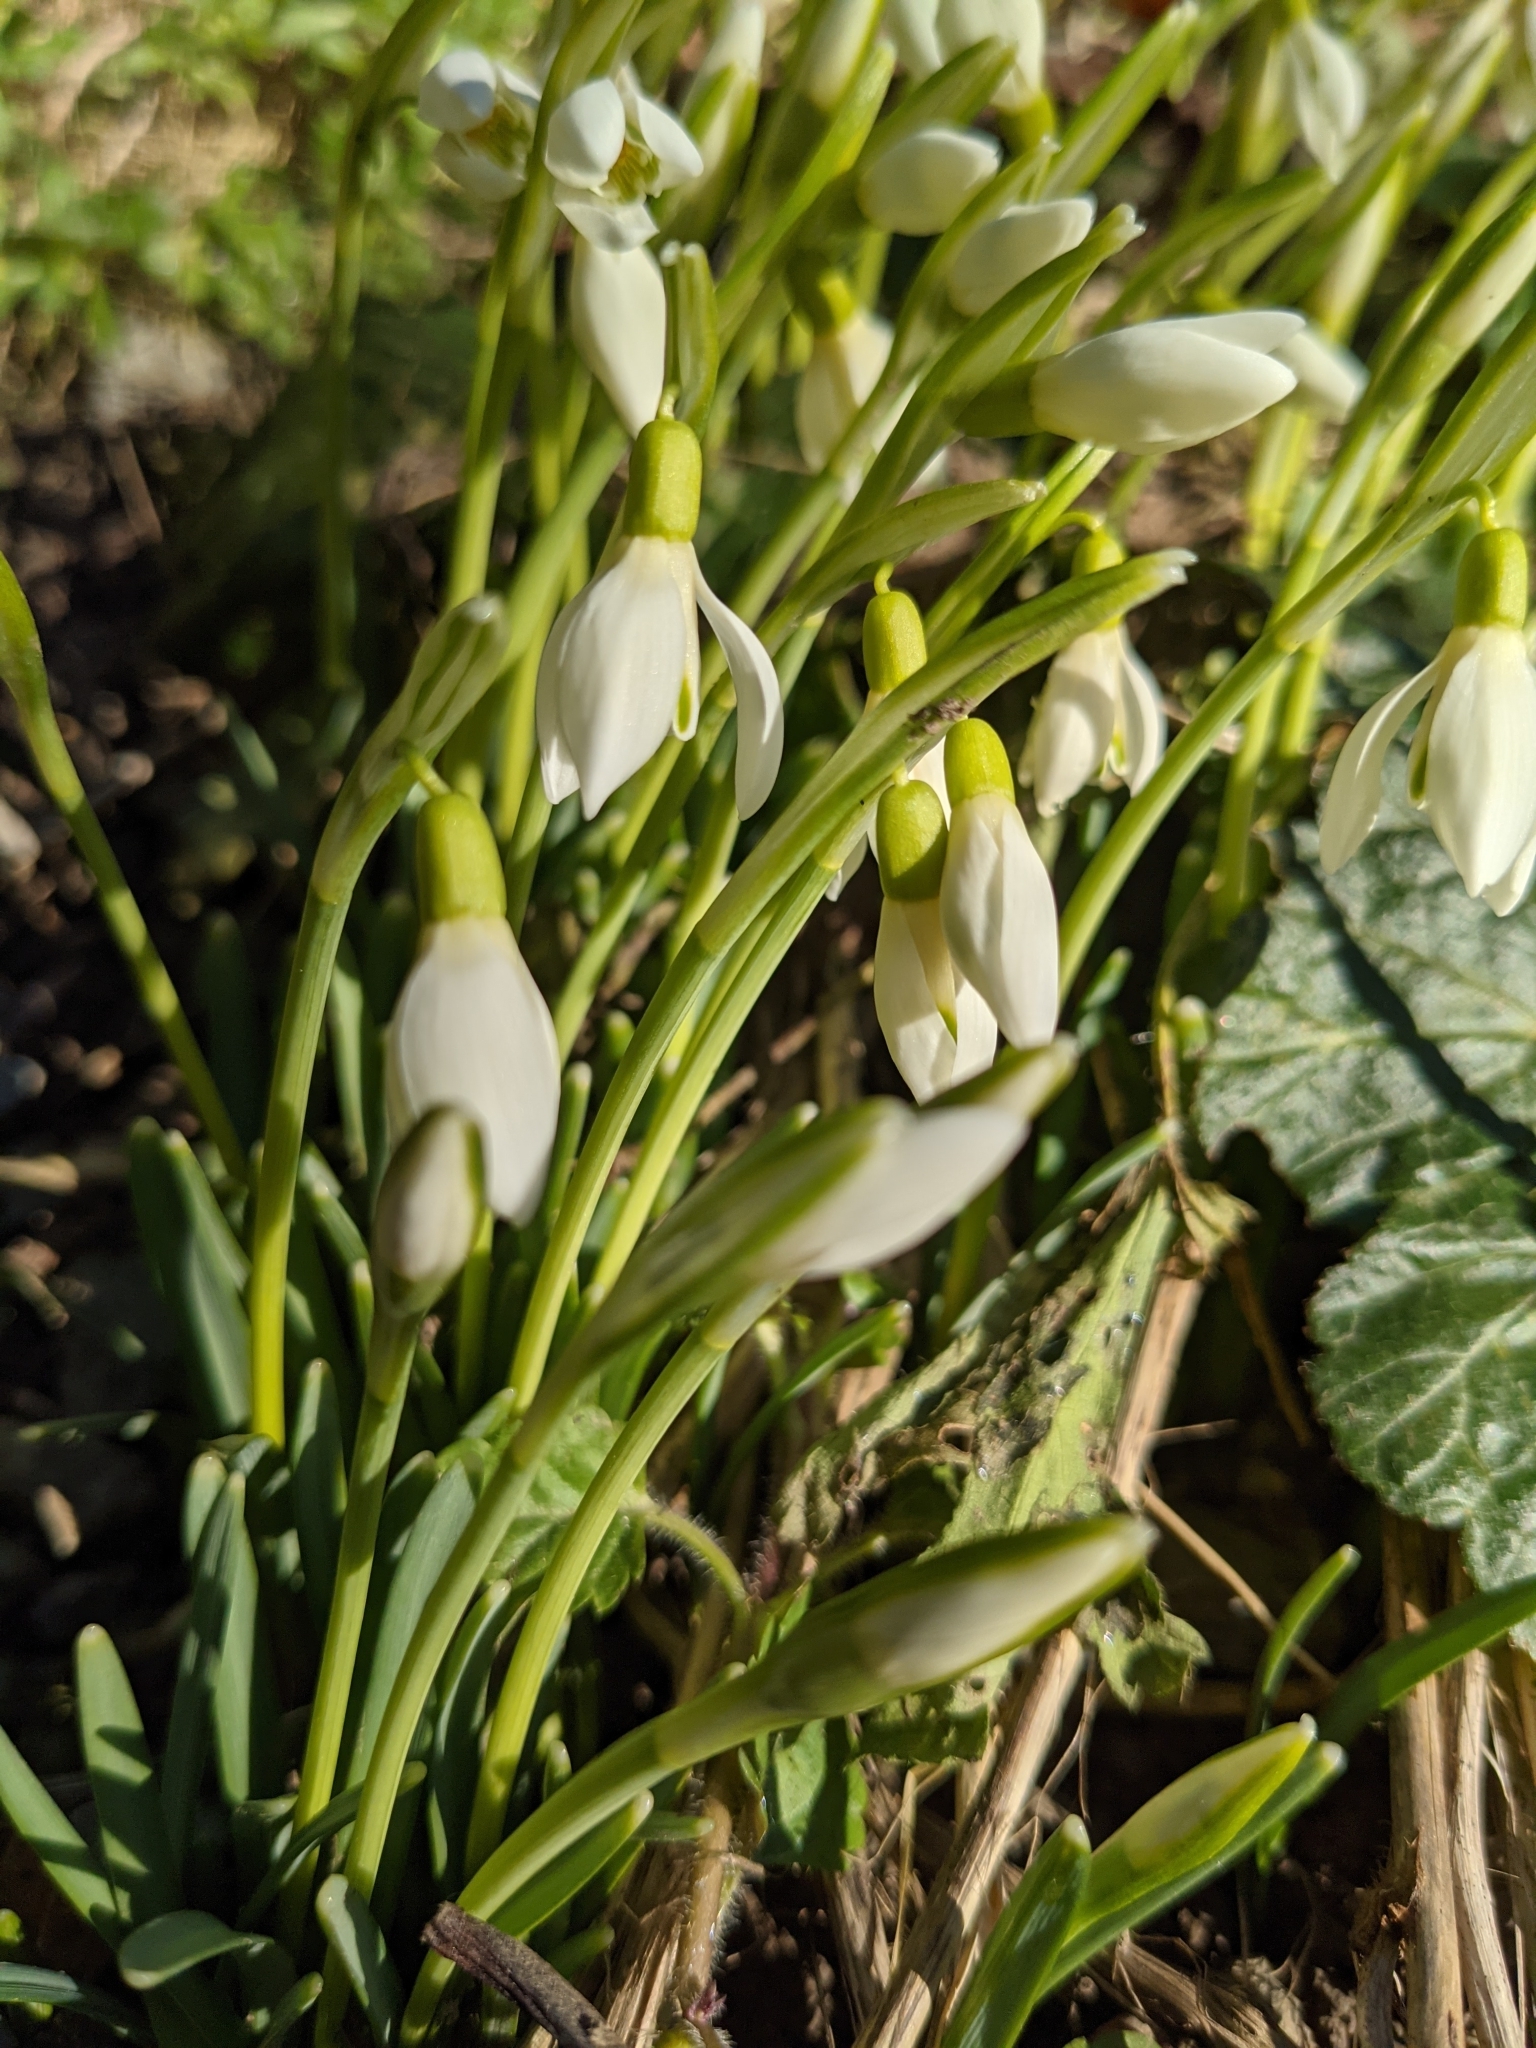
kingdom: Plantae
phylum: Tracheophyta
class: Liliopsida
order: Asparagales
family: Amaryllidaceae
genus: Galanthus
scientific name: Galanthus nivalis
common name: Snowdrop
